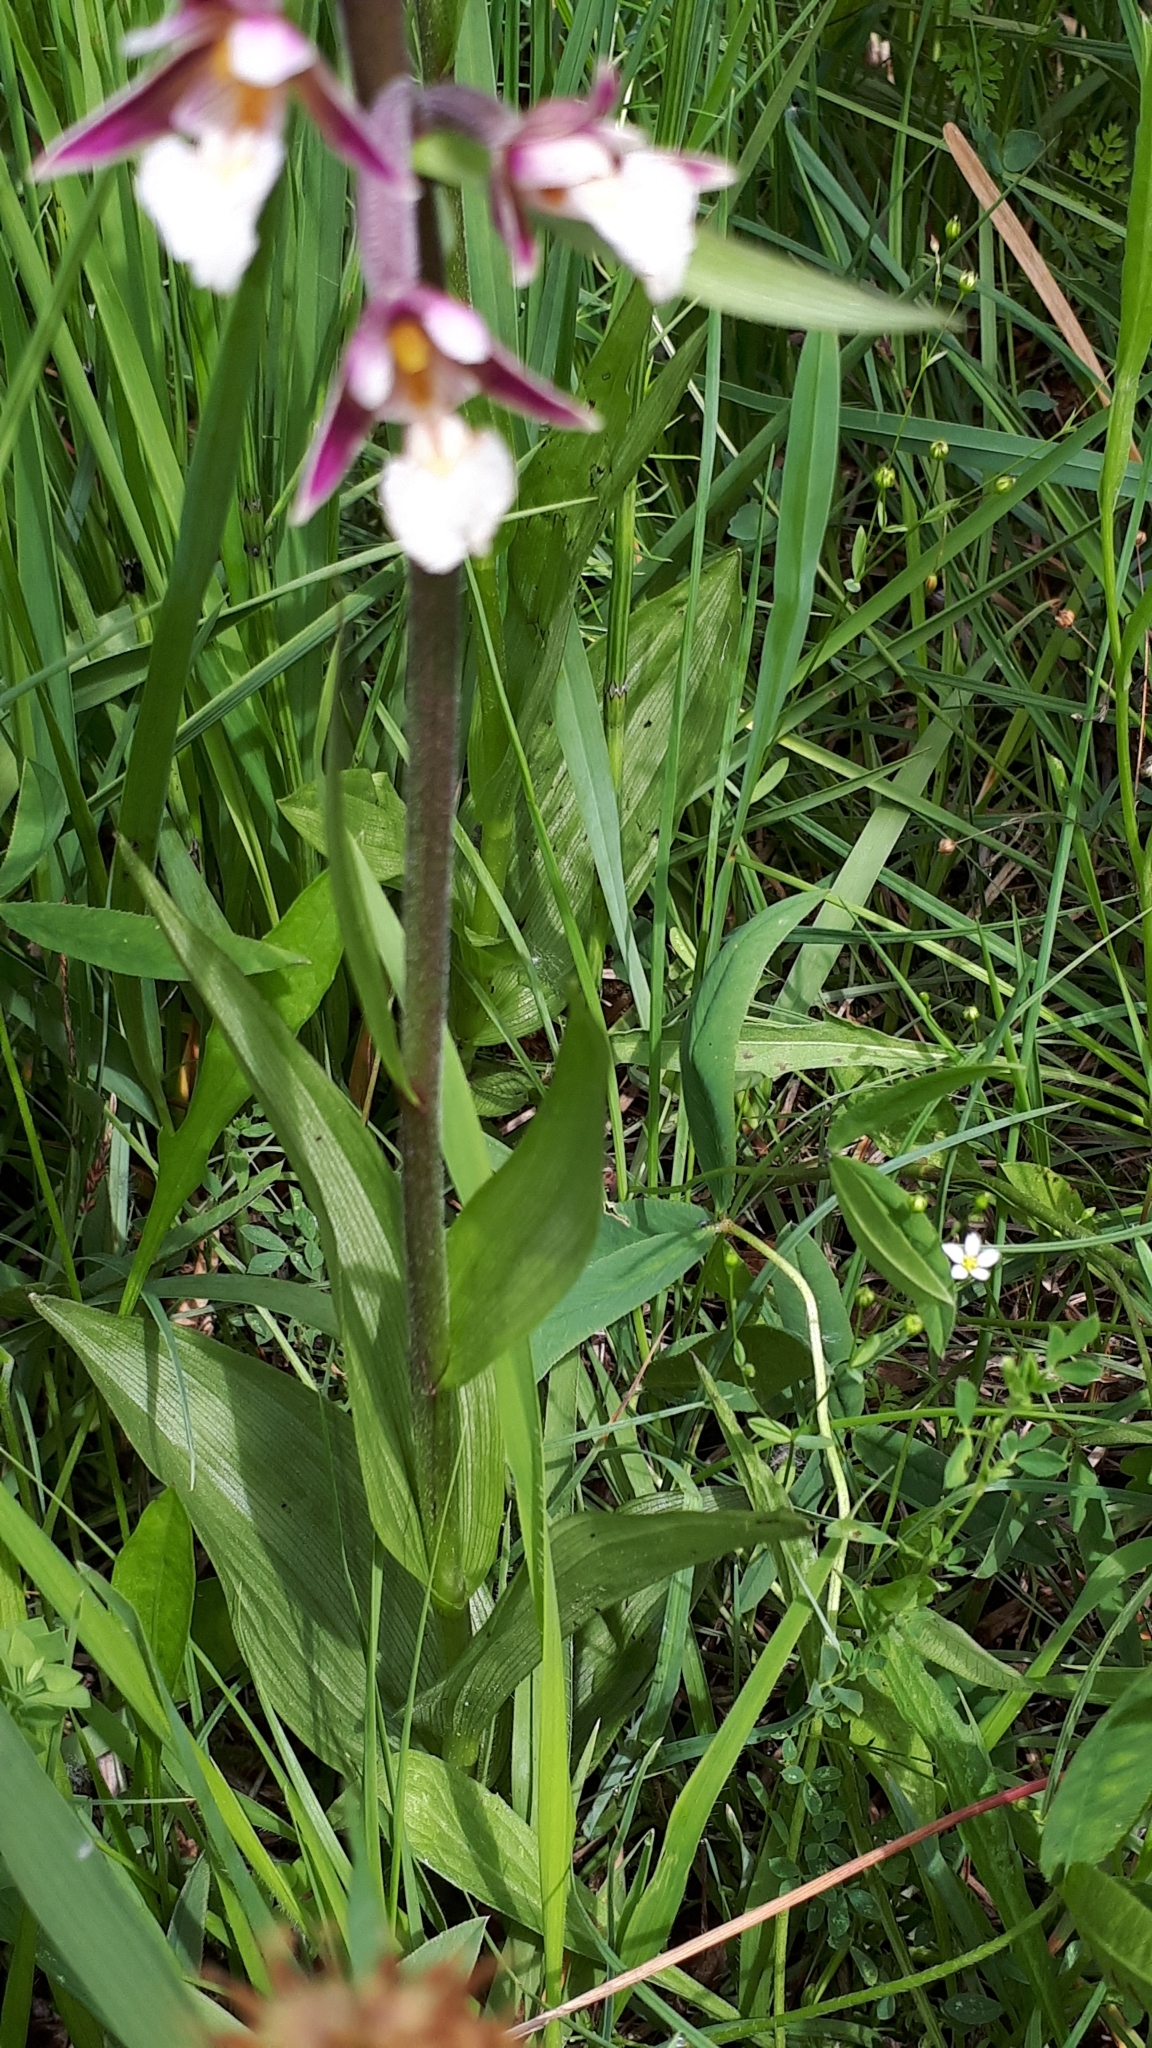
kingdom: Plantae
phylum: Tracheophyta
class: Liliopsida
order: Asparagales
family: Orchidaceae
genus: Epipactis
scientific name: Epipactis palustris
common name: Marsh helleborine
